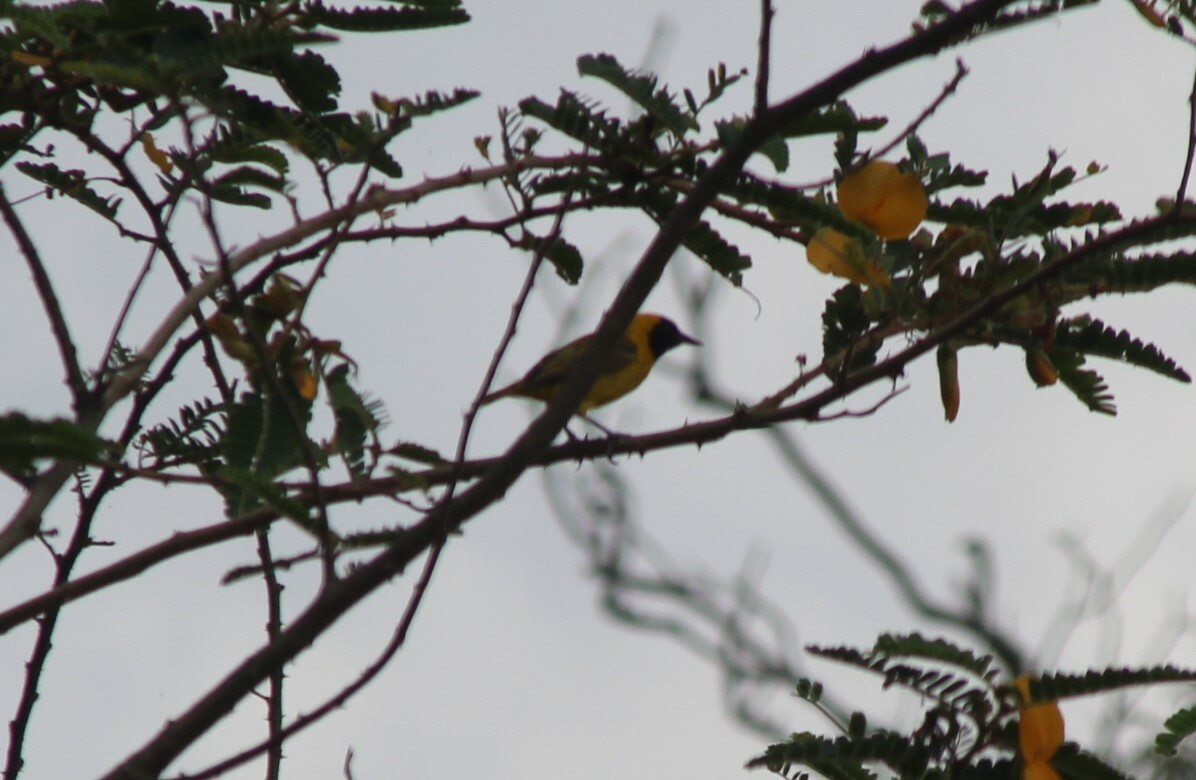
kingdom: Animalia
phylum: Chordata
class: Aves
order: Passeriformes
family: Ploceidae
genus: Ploceus
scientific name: Ploceus pelzelni
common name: Slender-billed weaver
